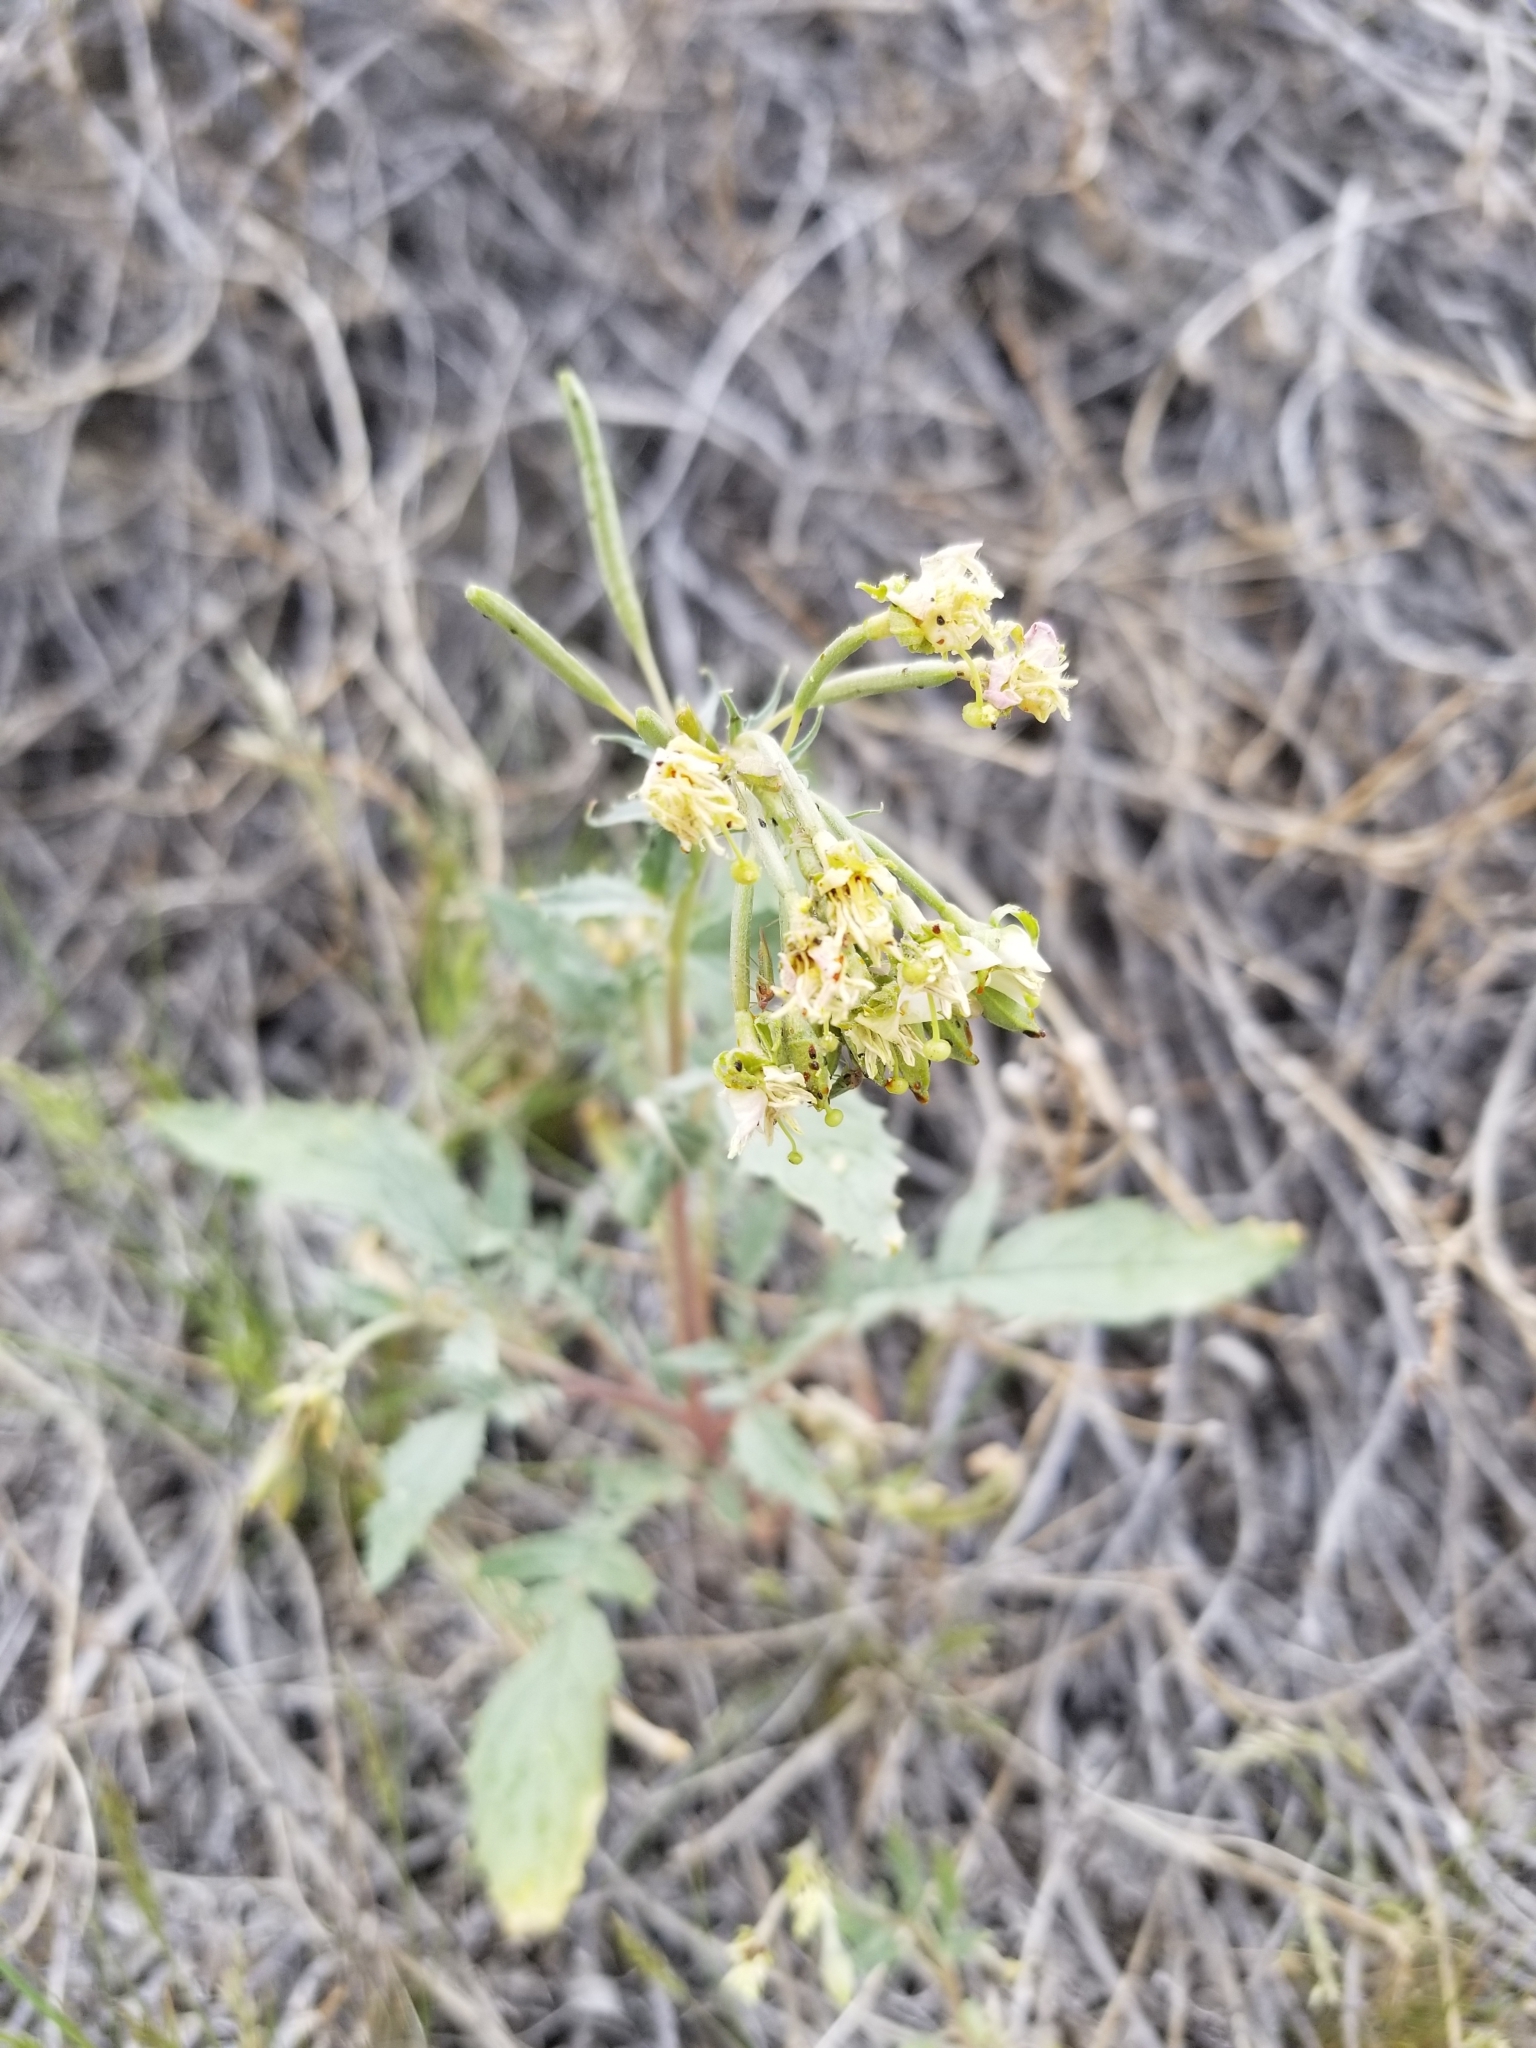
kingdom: Plantae
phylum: Tracheophyta
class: Magnoliopsida
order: Myrtales
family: Onagraceae
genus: Chylismia
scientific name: Chylismia claviformis
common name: Browneyes
